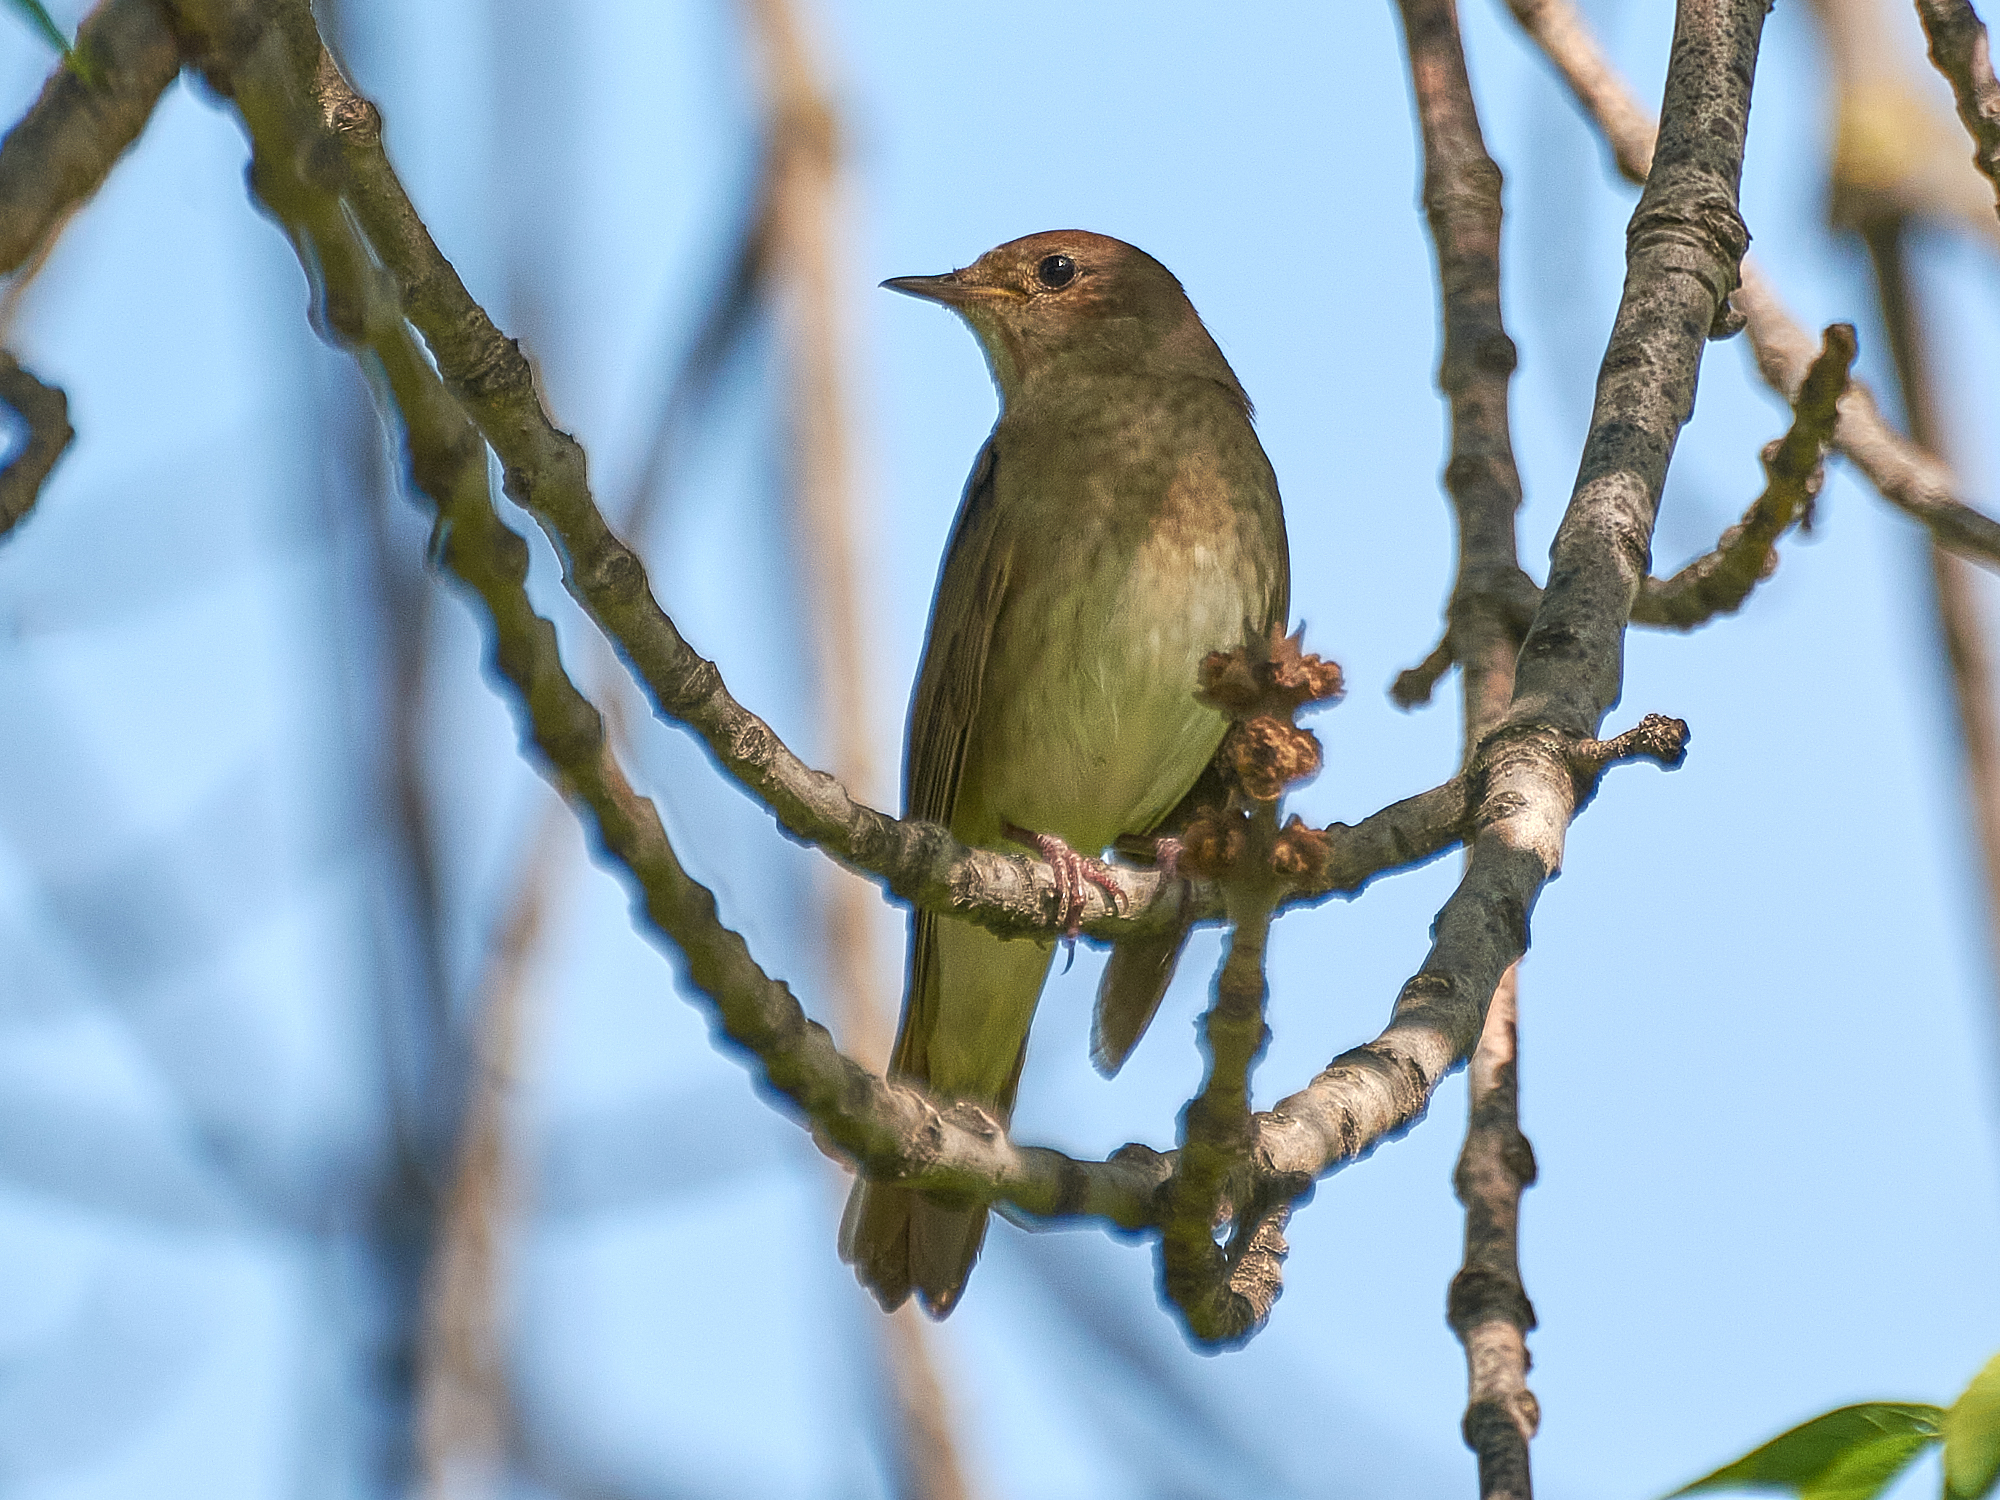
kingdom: Animalia
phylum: Chordata
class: Aves
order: Passeriformes
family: Muscicapidae
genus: Luscinia
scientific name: Luscinia luscinia
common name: Thrush nightingale
